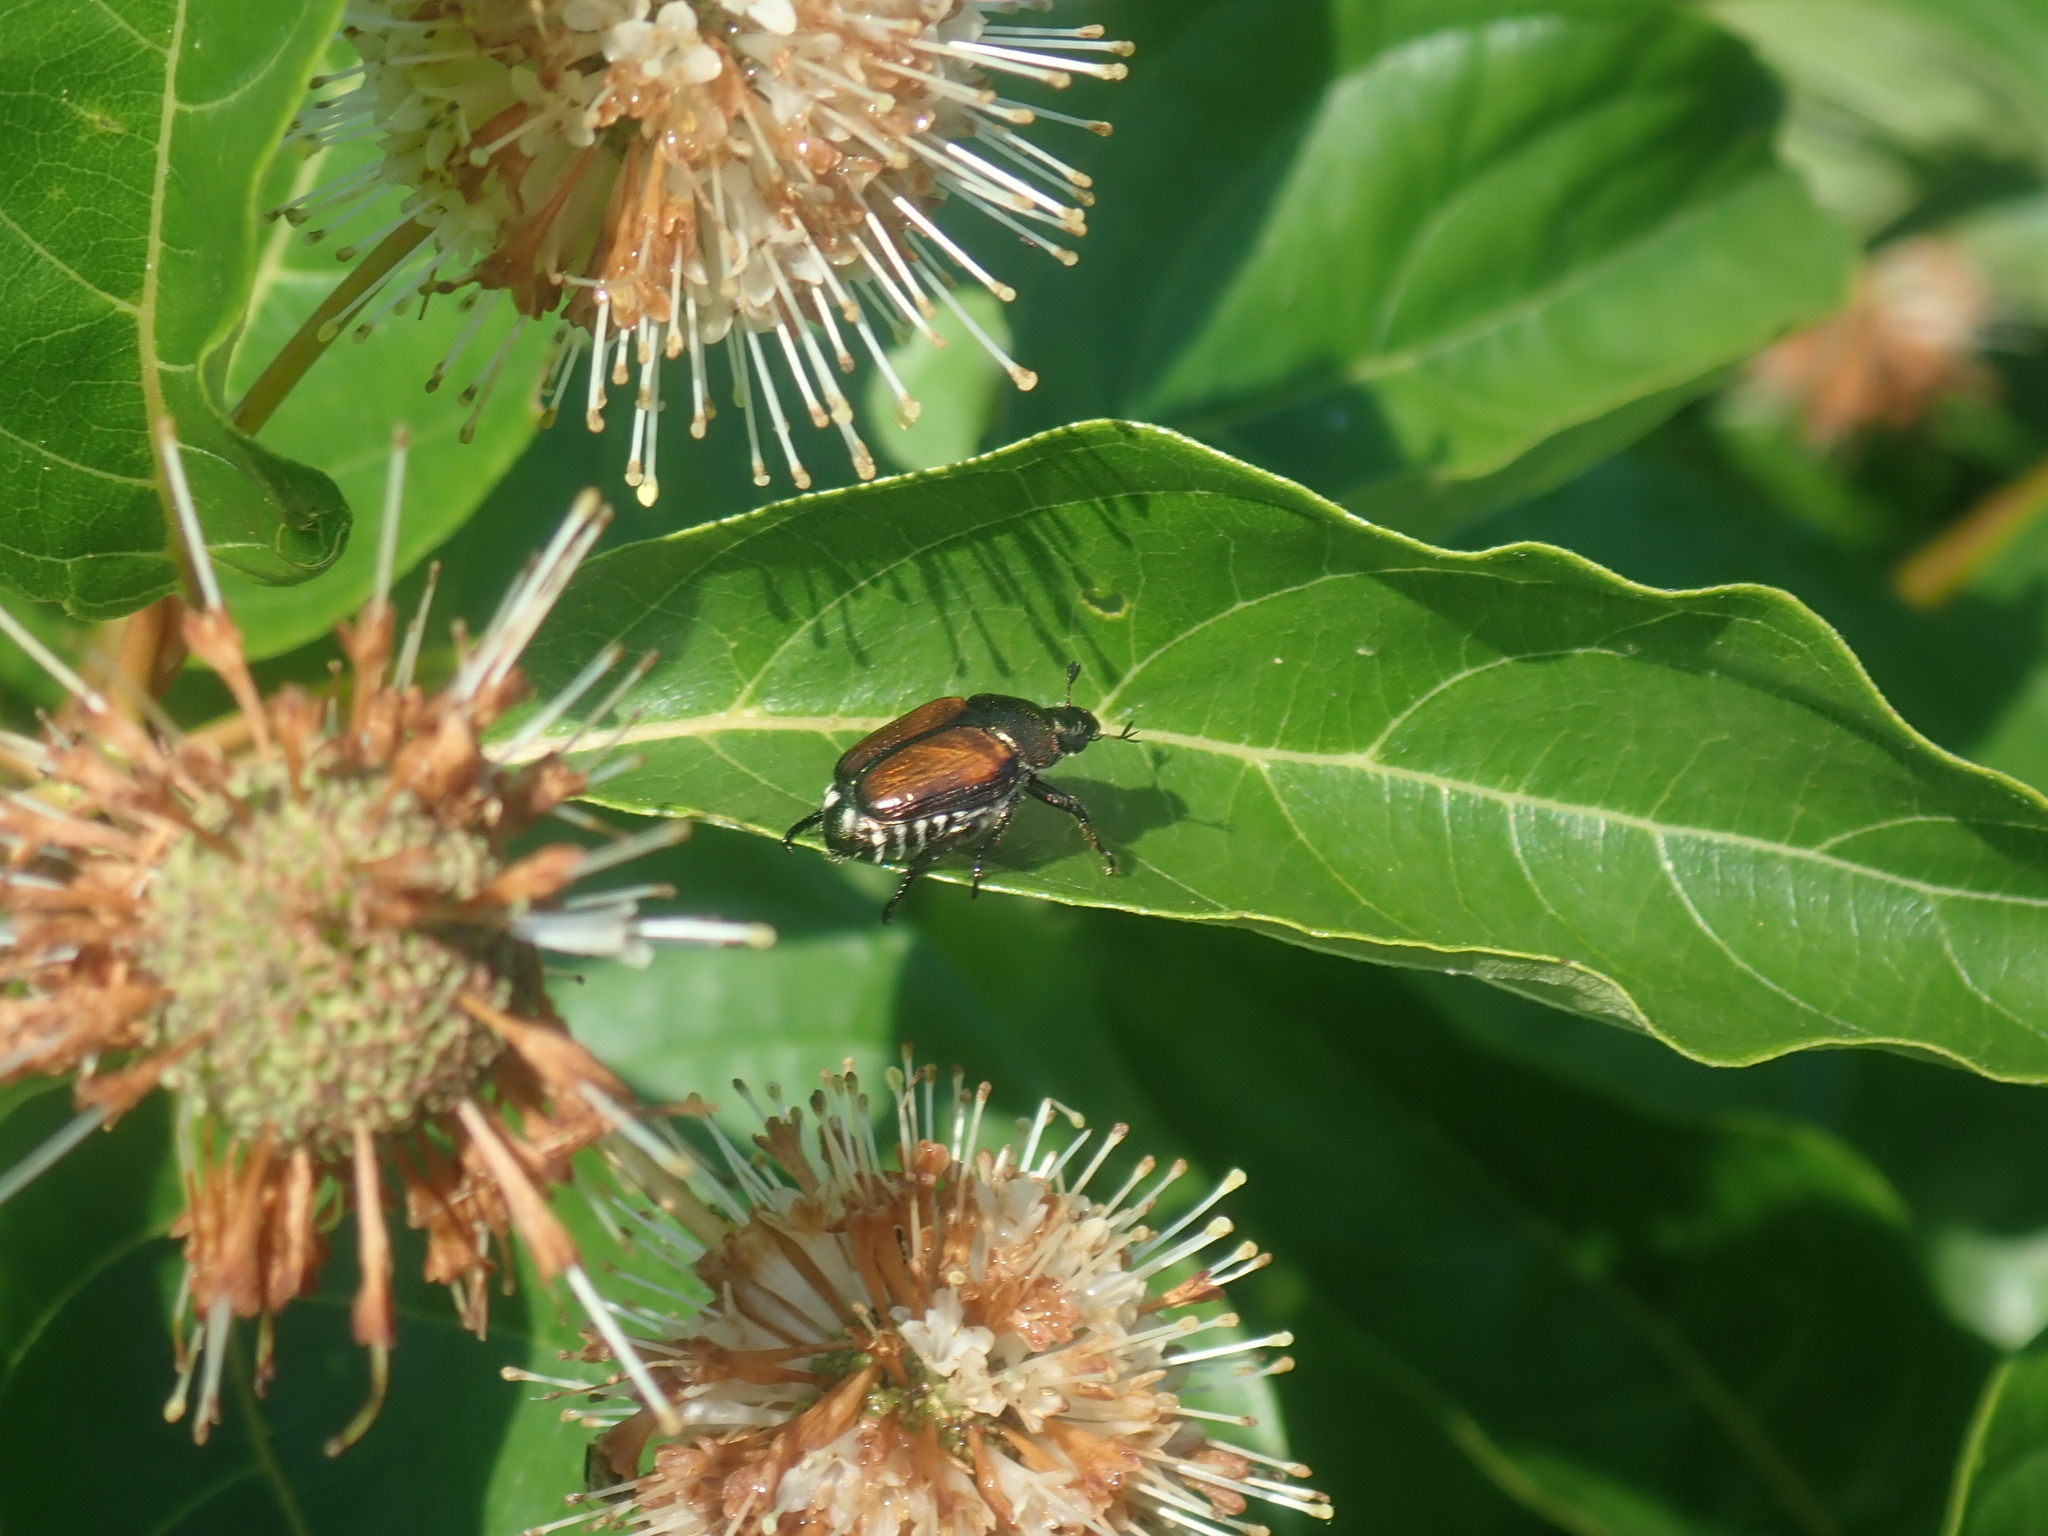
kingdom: Animalia
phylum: Arthropoda
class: Insecta
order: Coleoptera
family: Scarabaeidae
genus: Popillia
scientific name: Popillia japonica
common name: Japanese beetle
